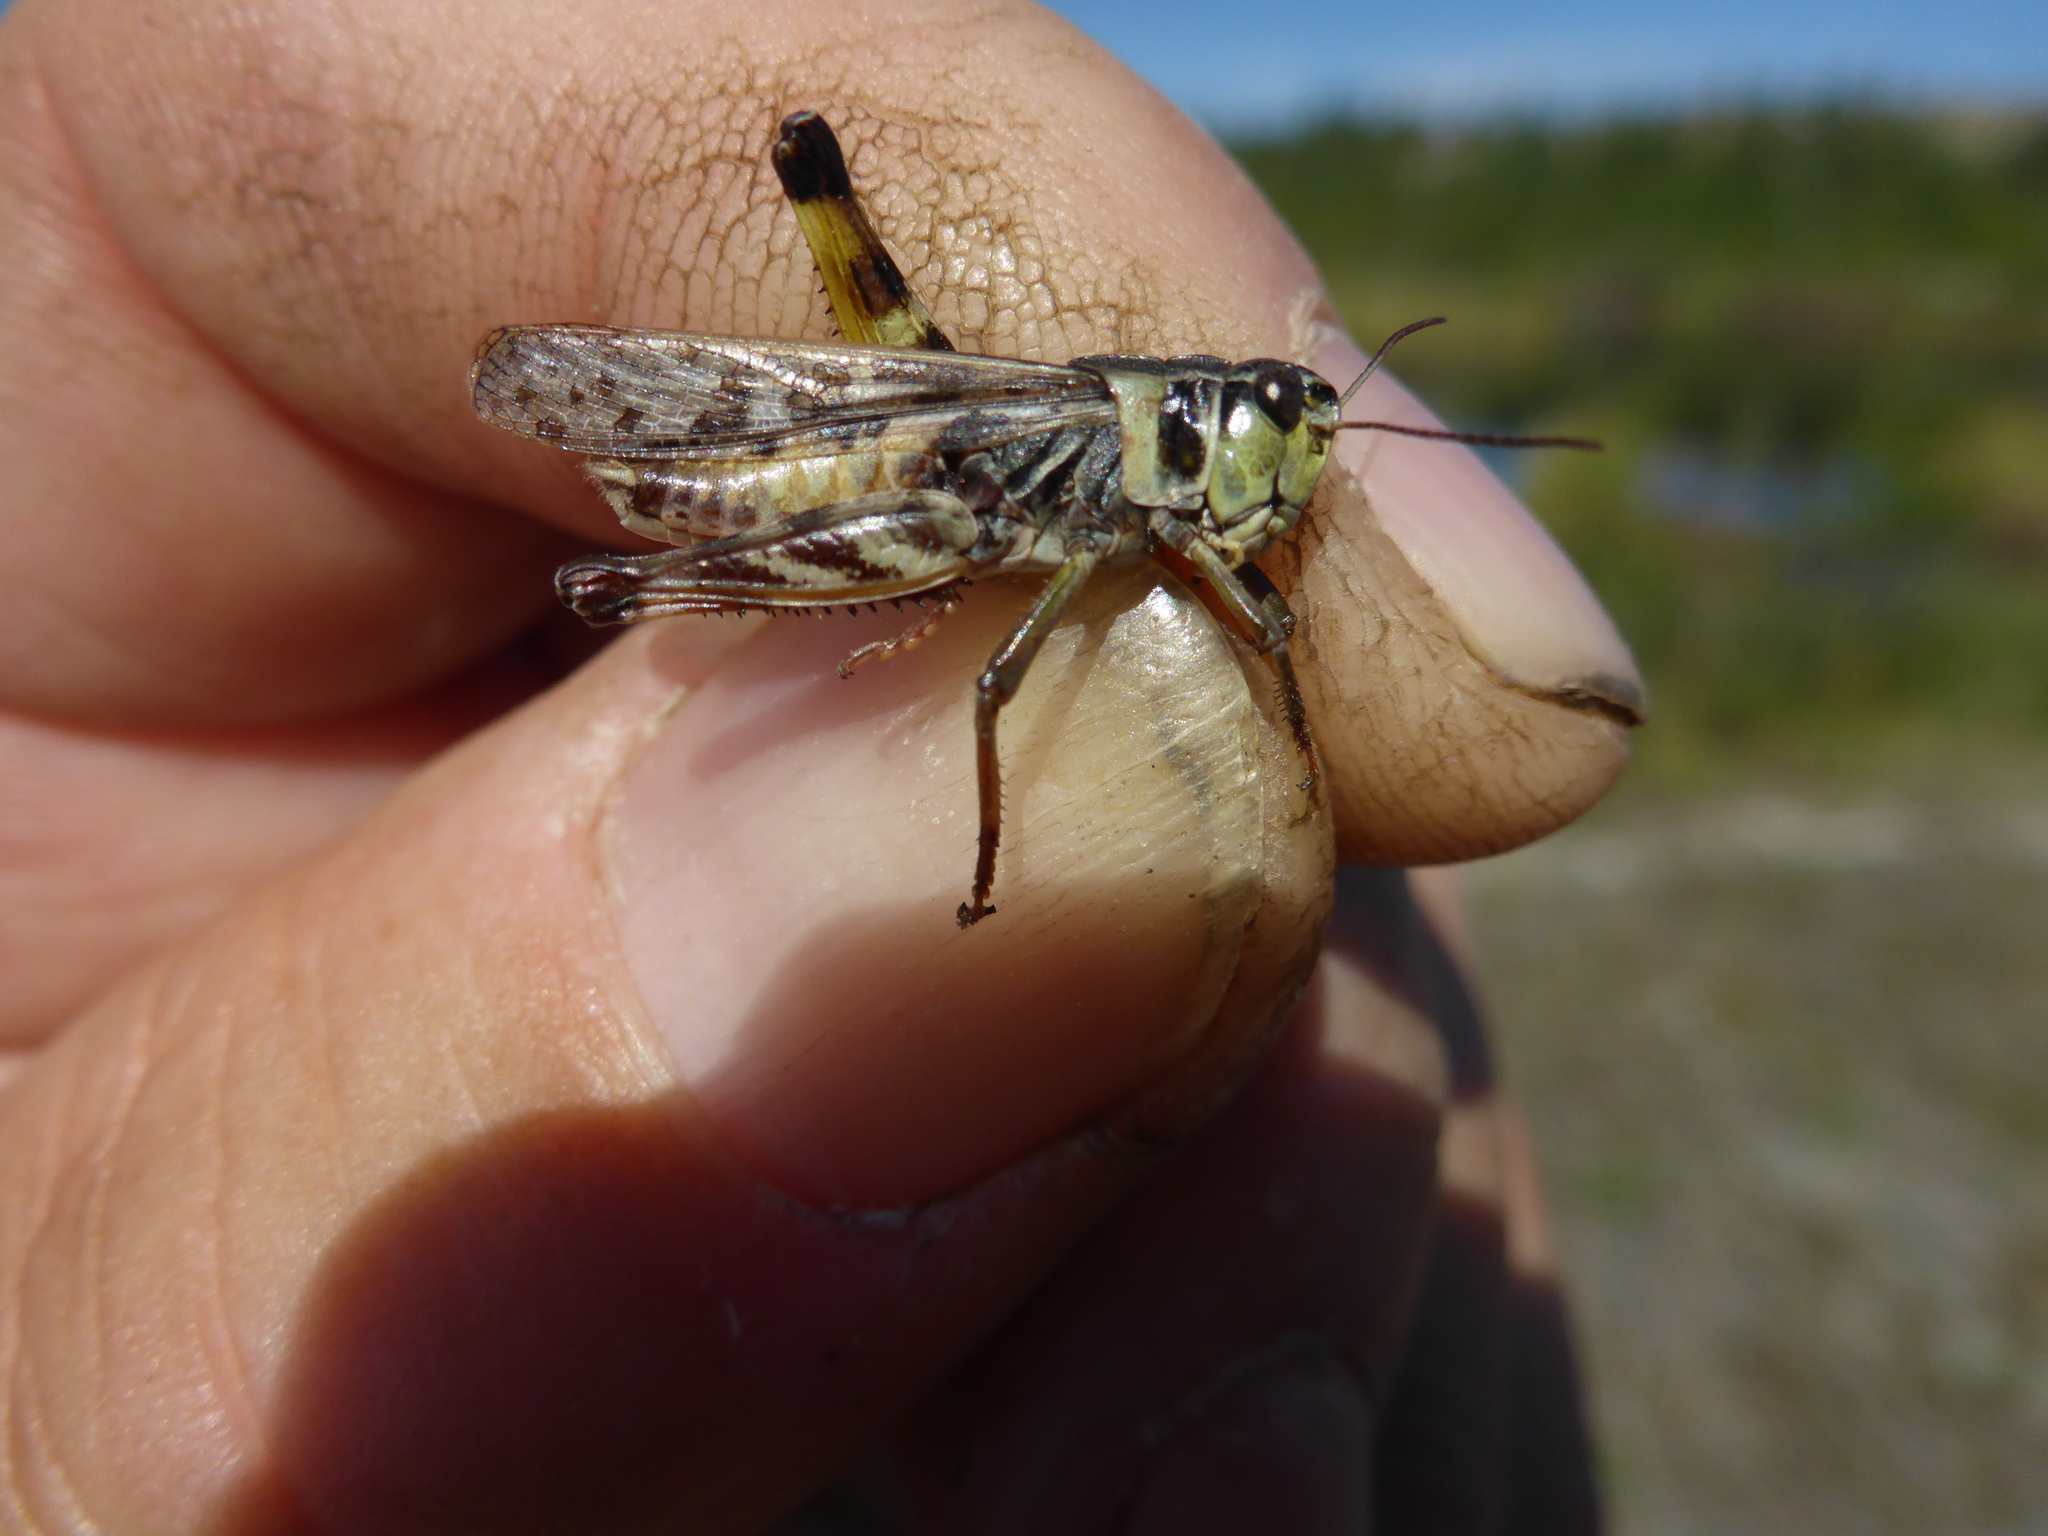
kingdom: Animalia
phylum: Arthropoda
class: Insecta
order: Orthoptera
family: Acrididae
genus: Camnula
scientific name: Camnula pellucida
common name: Clear-winged grasshopper
